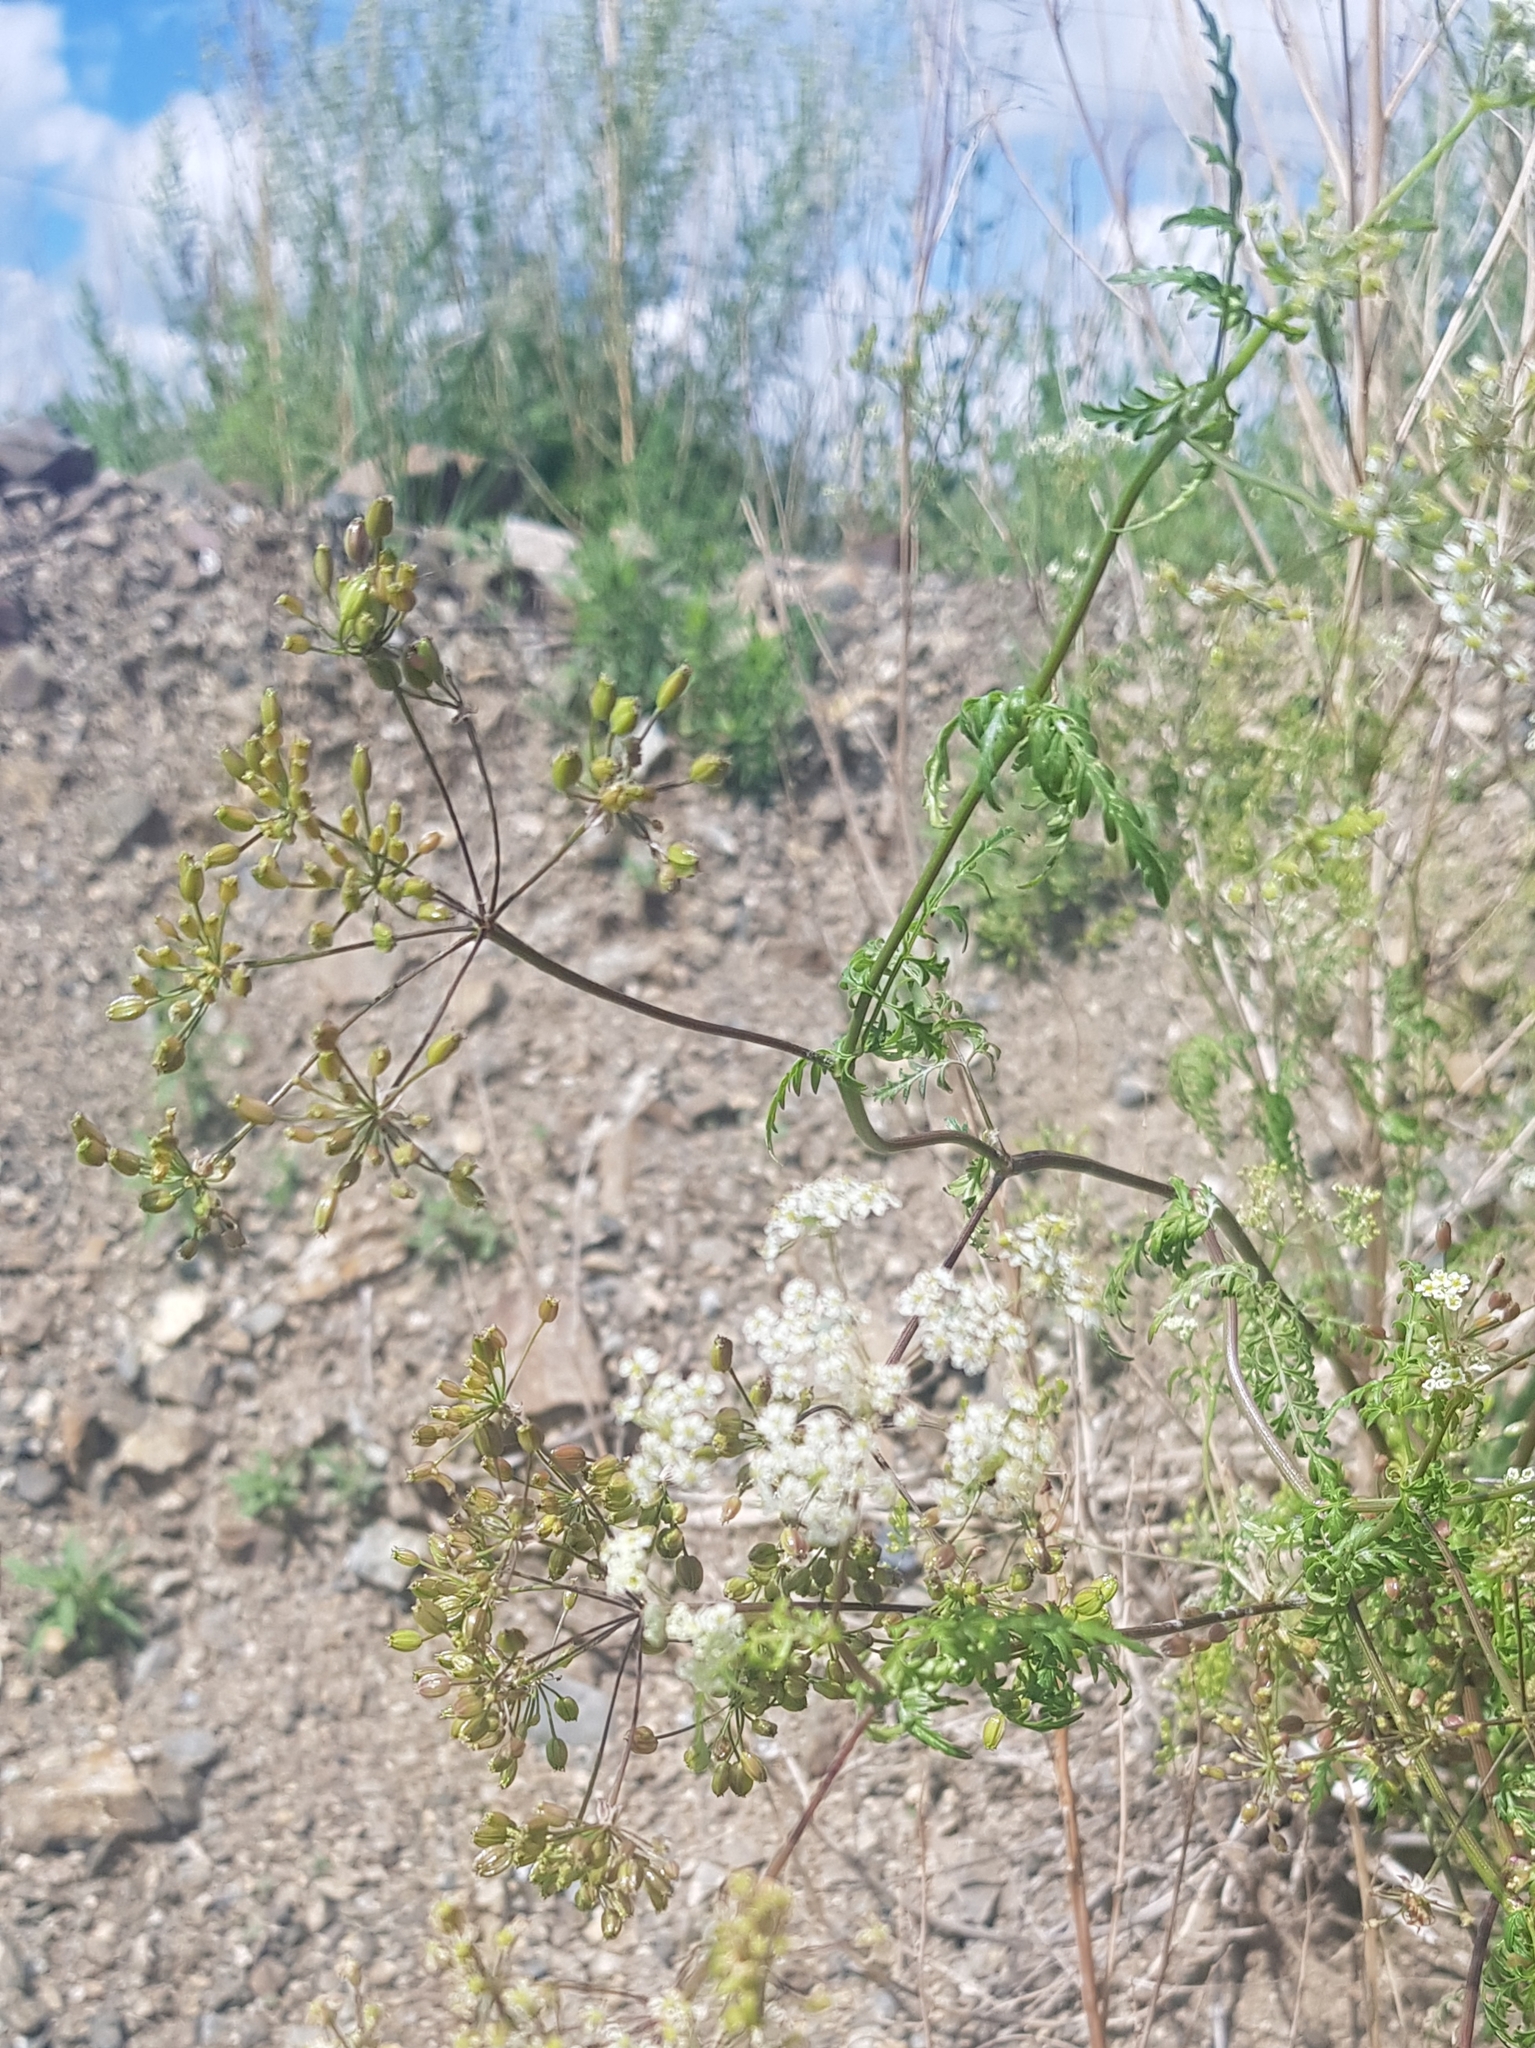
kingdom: Plantae
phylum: Tracheophyta
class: Magnoliopsida
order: Apiales
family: Apiaceae
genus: Sphallerocarpus
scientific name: Sphallerocarpus gracilis
